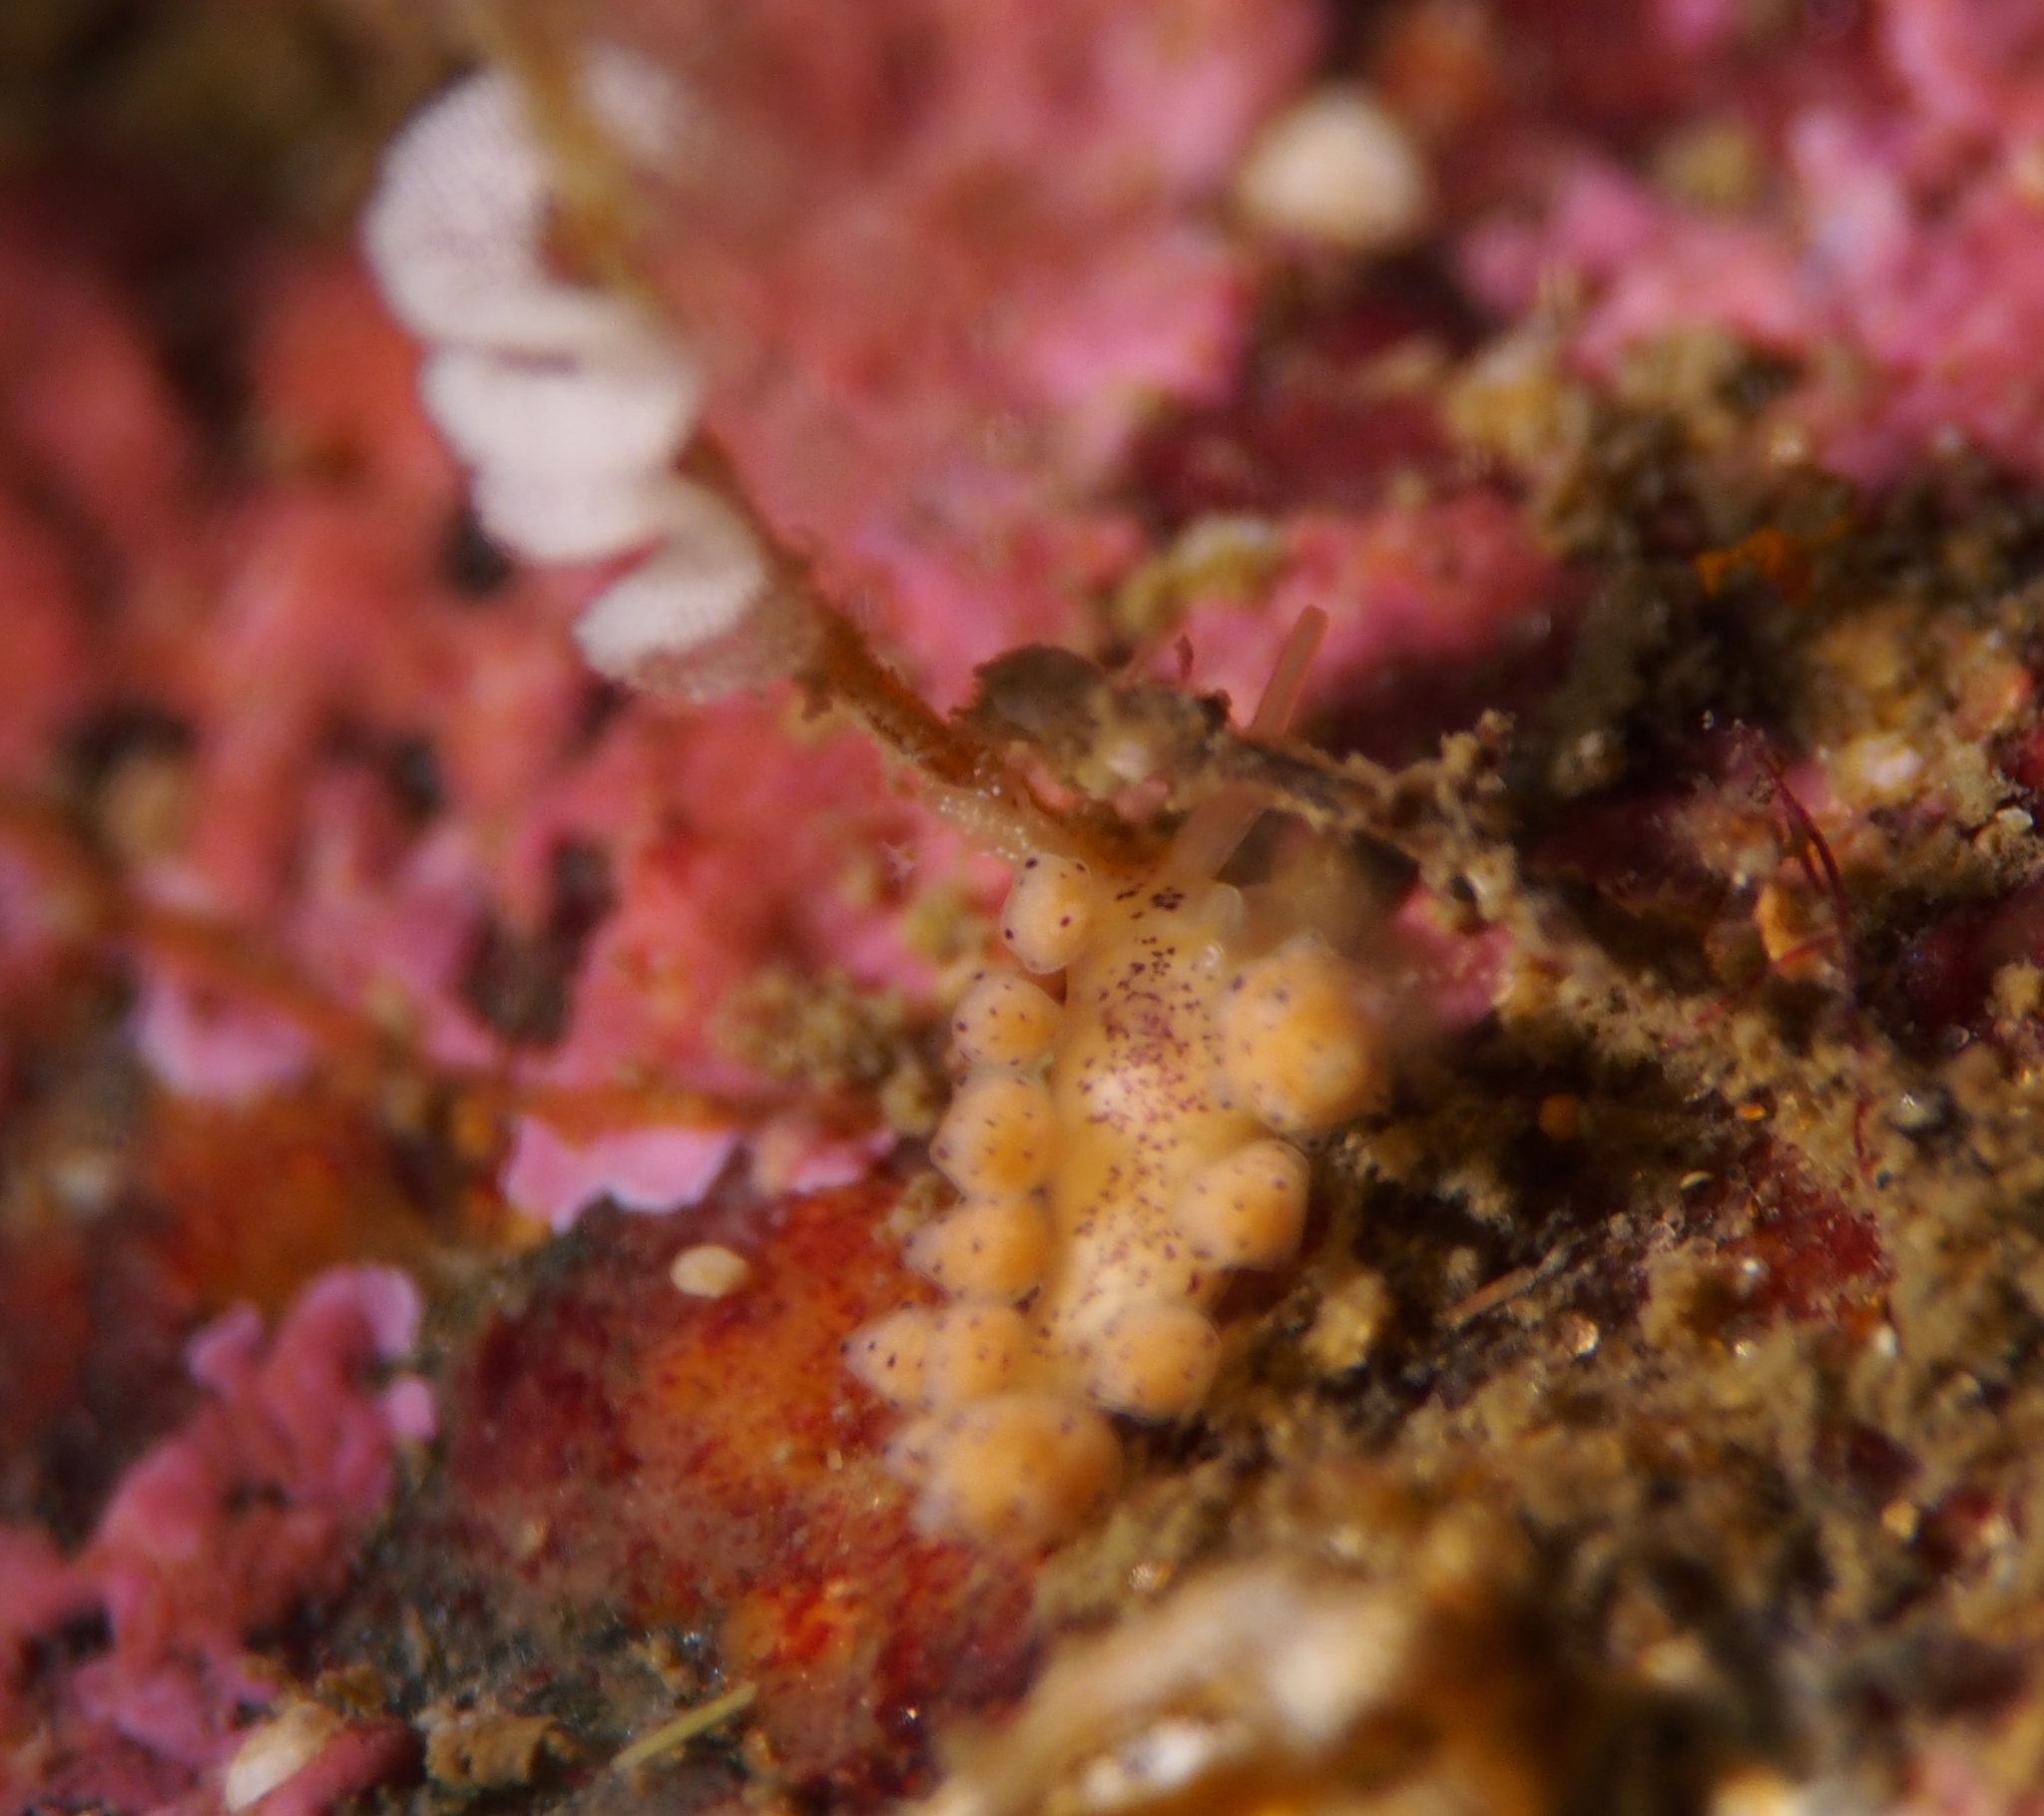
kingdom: Animalia
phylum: Mollusca
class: Gastropoda
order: Nudibranchia
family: Dotidae
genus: Doto
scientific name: Doto dunnei
